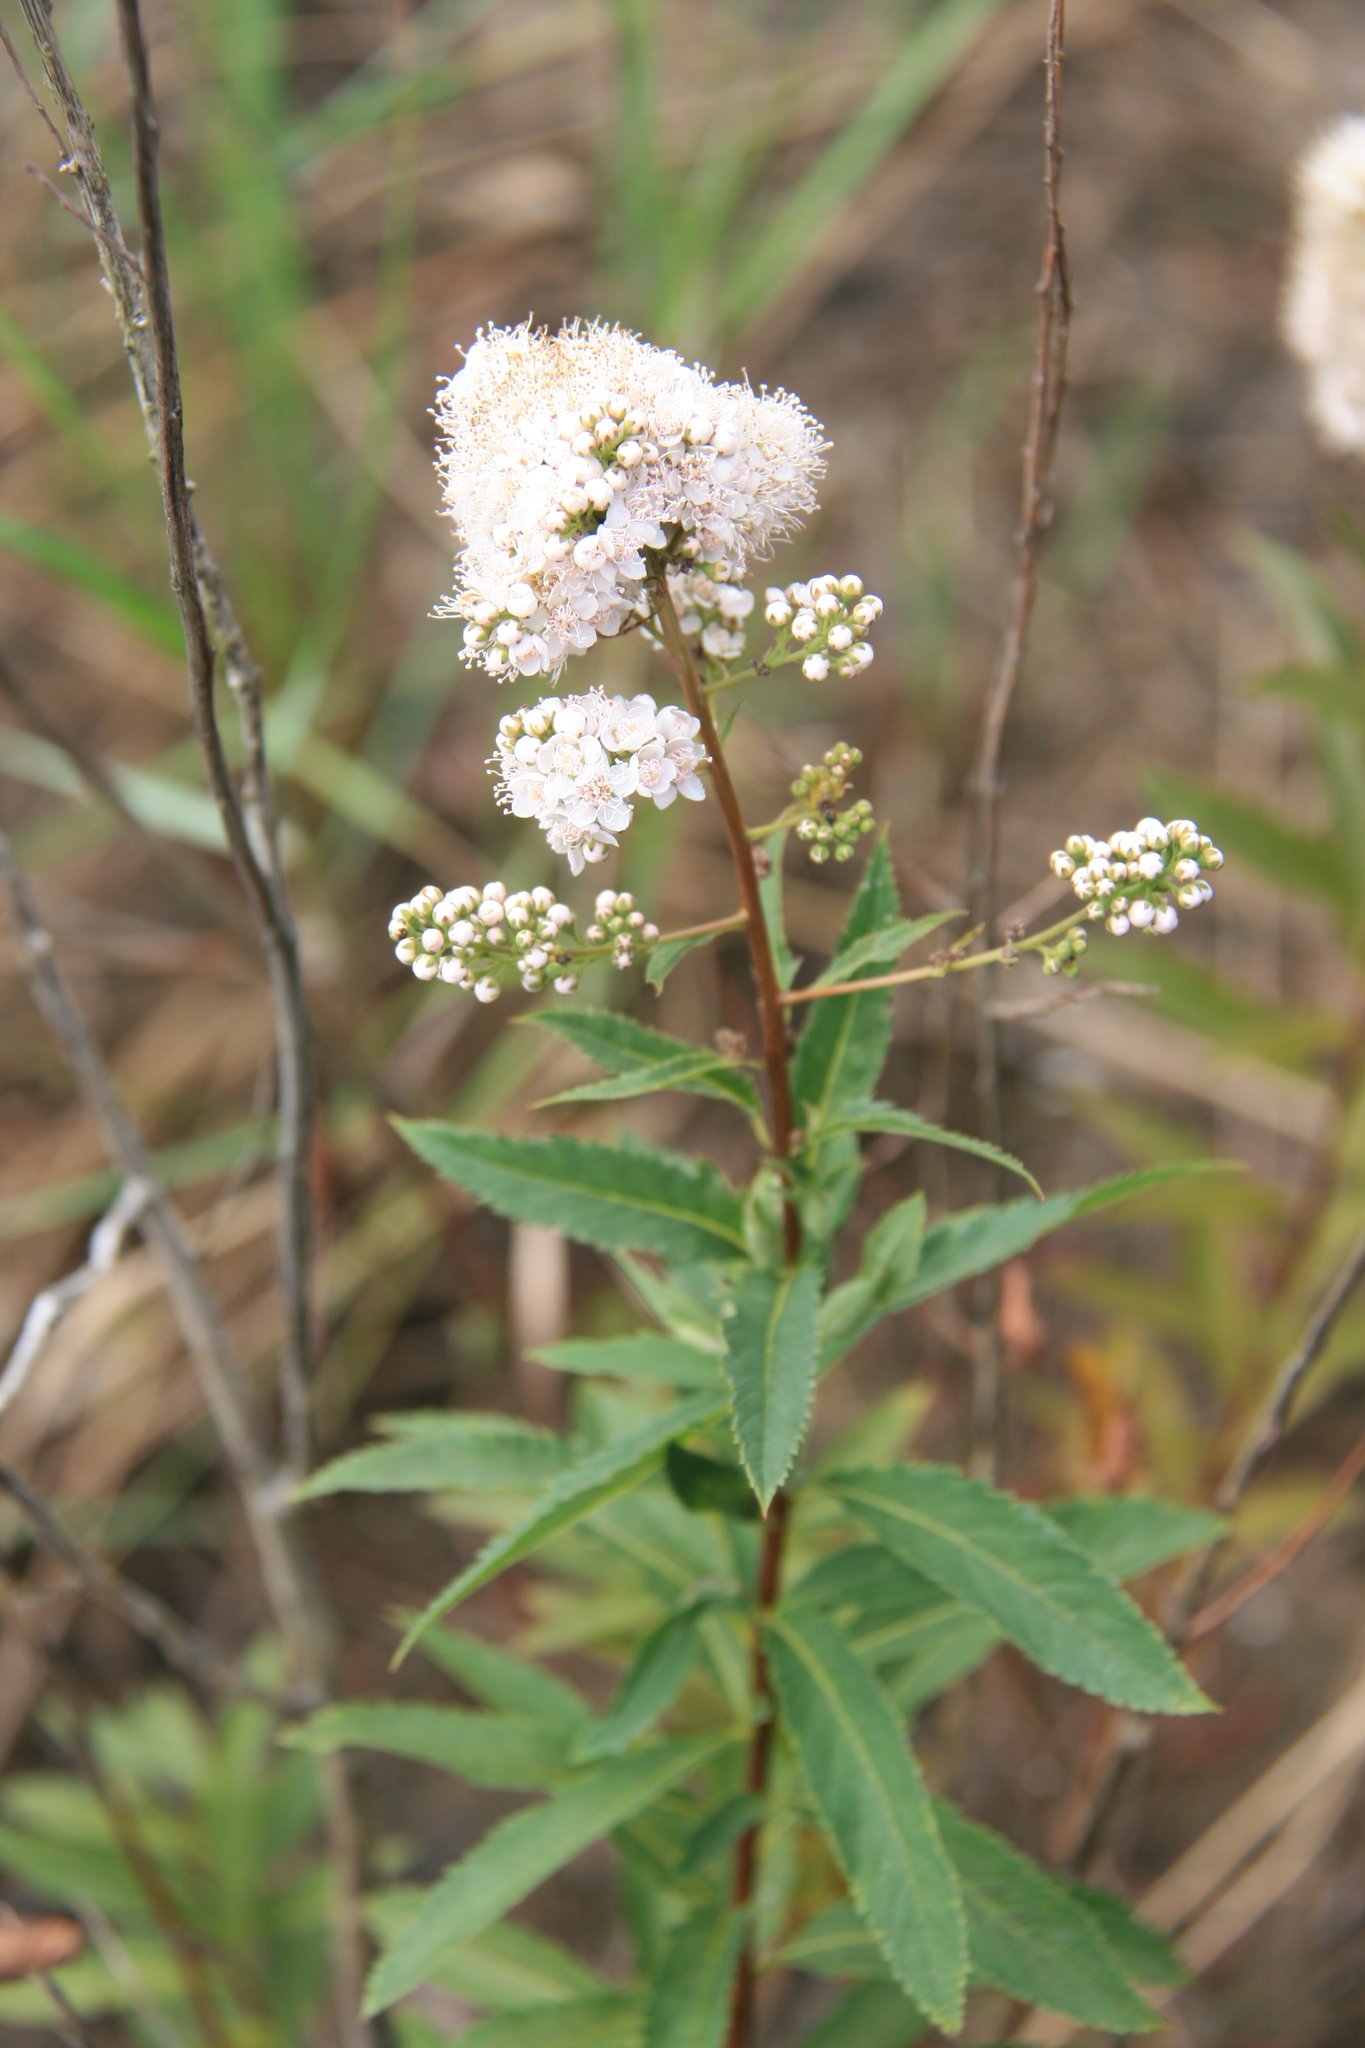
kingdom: Plantae
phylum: Tracheophyta
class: Magnoliopsida
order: Rosales
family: Rosaceae
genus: Spiraea
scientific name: Spiraea alba
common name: Pale bridewort
